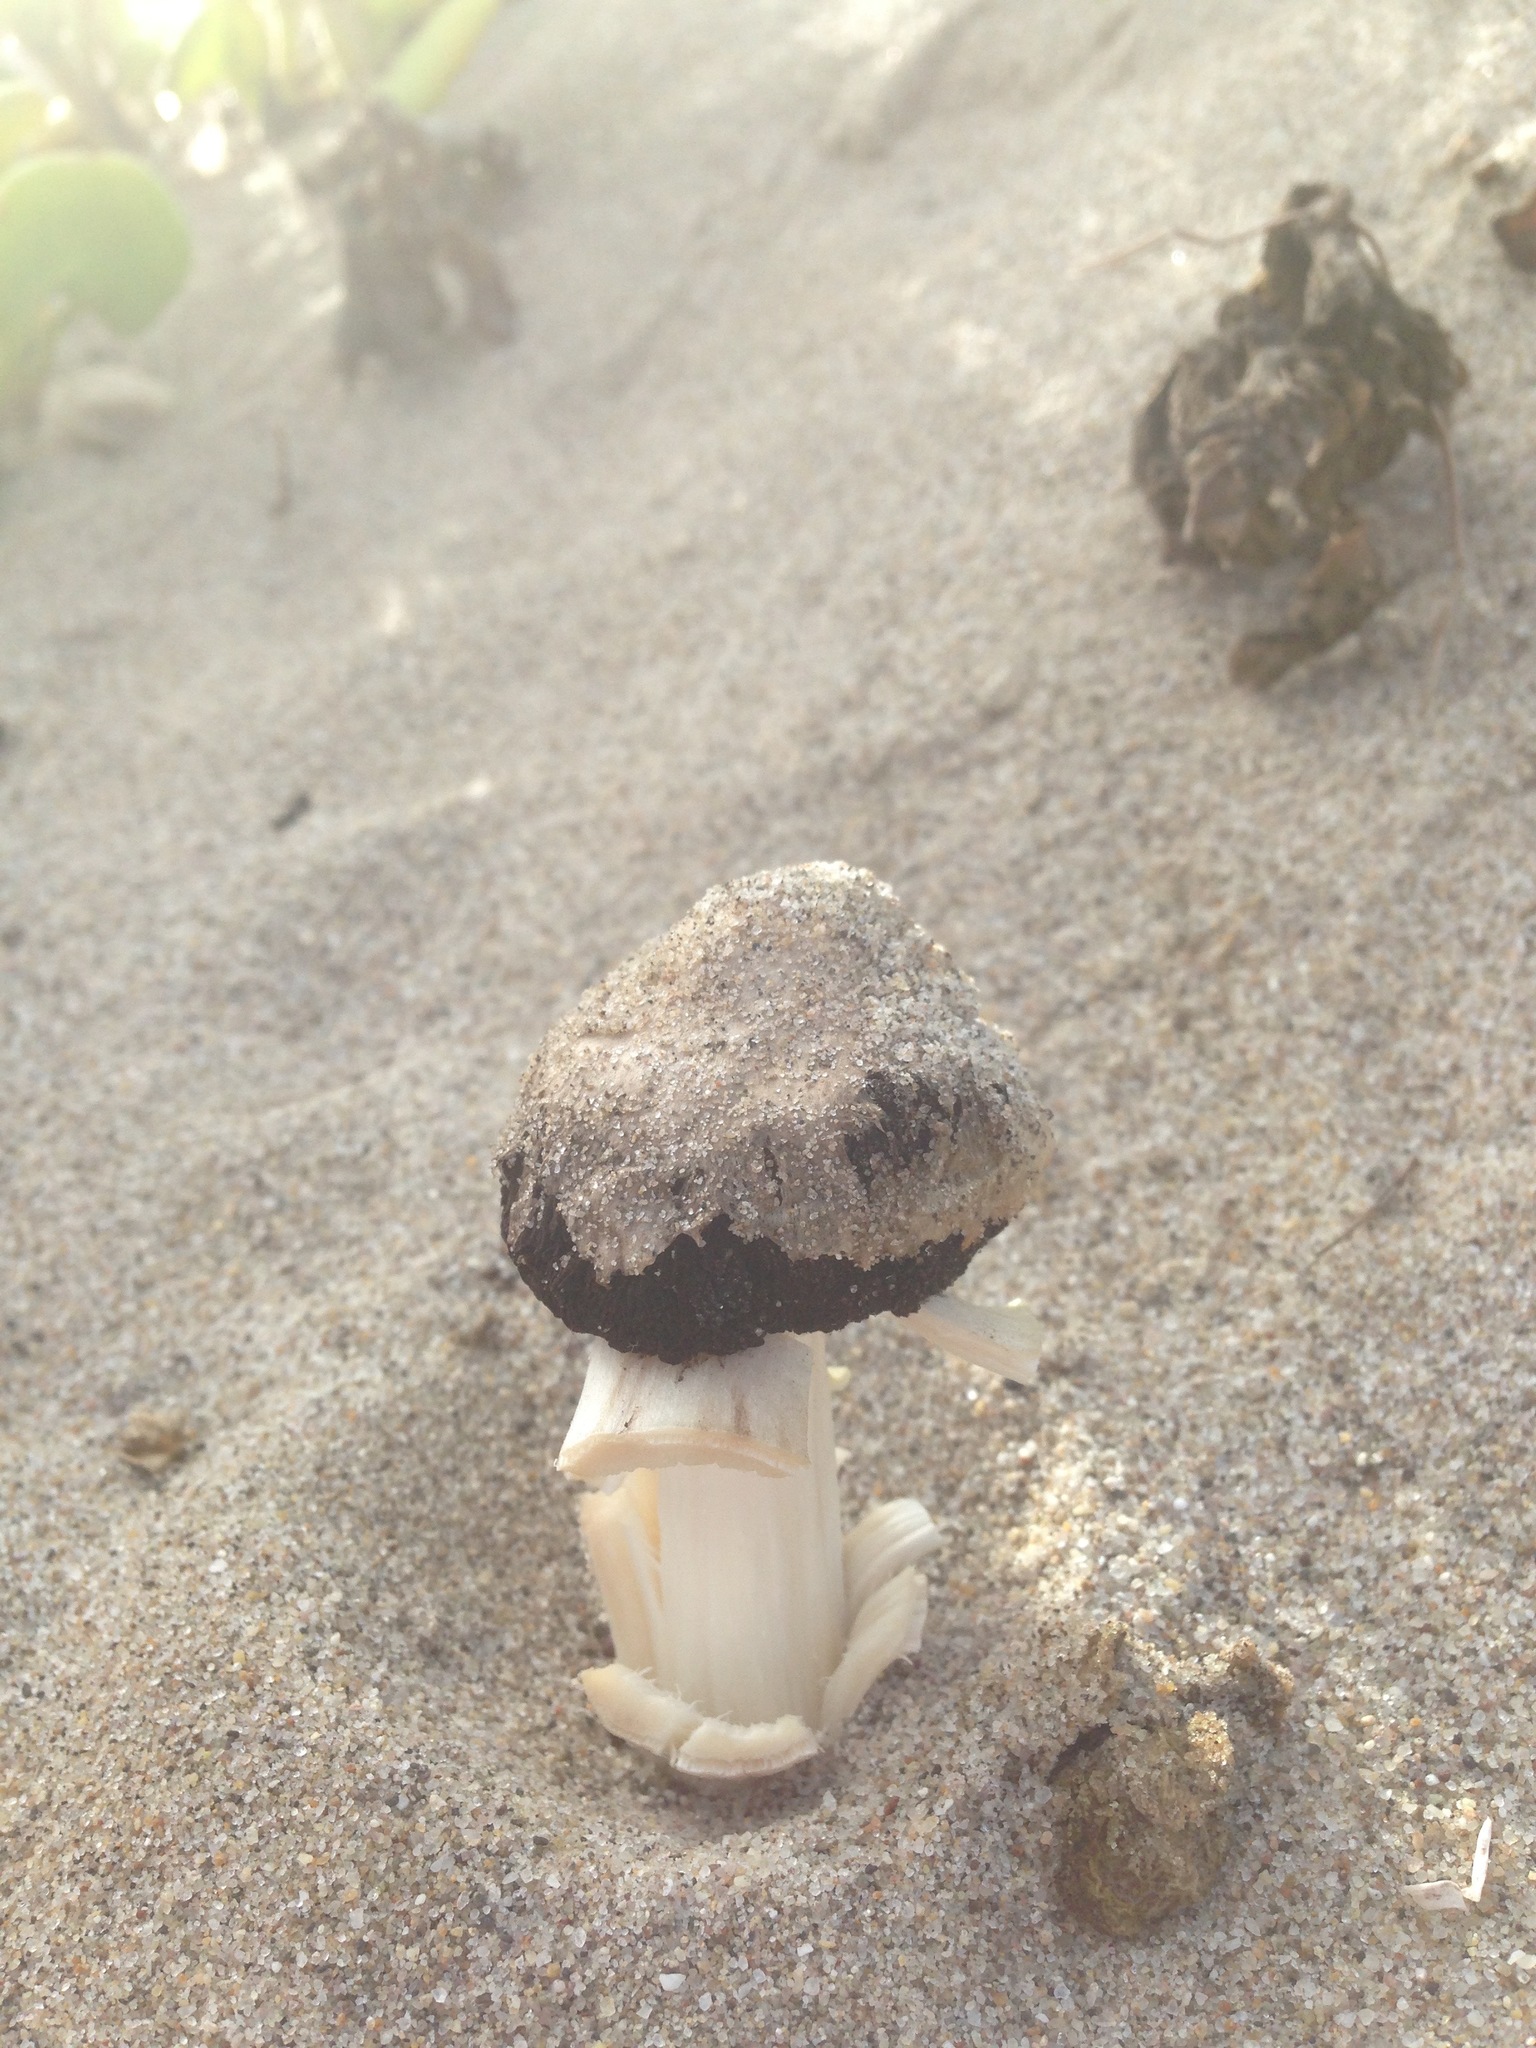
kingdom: Fungi
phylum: Basidiomycota
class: Agaricomycetes
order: Agaricales
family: Agaricaceae
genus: Agaricus
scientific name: Agaricus zelleri
